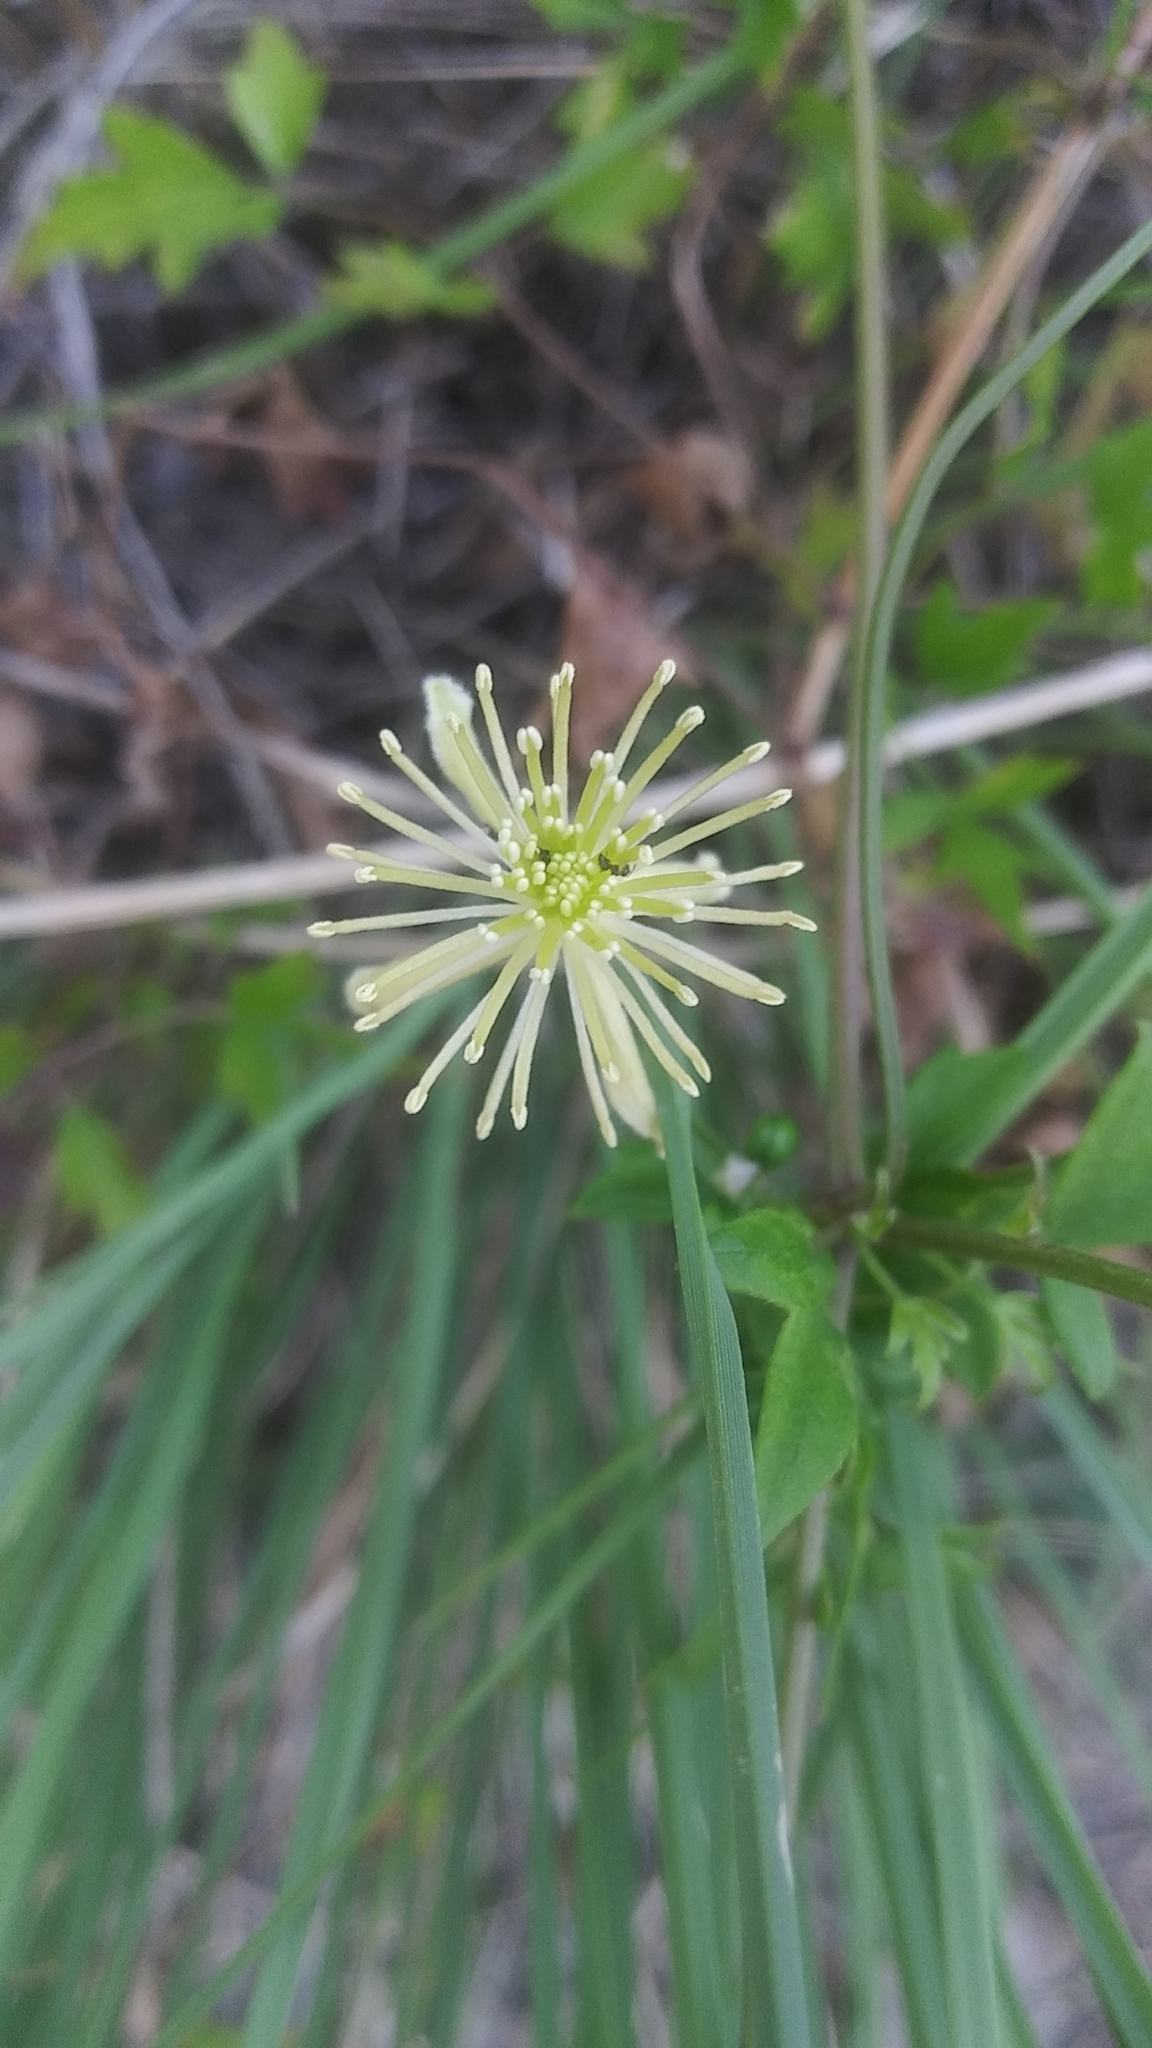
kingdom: Plantae
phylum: Tracheophyta
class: Magnoliopsida
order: Ranunculales
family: Ranunculaceae
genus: Clematis
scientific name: Clematis drummondii
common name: Texas virgin's bower
